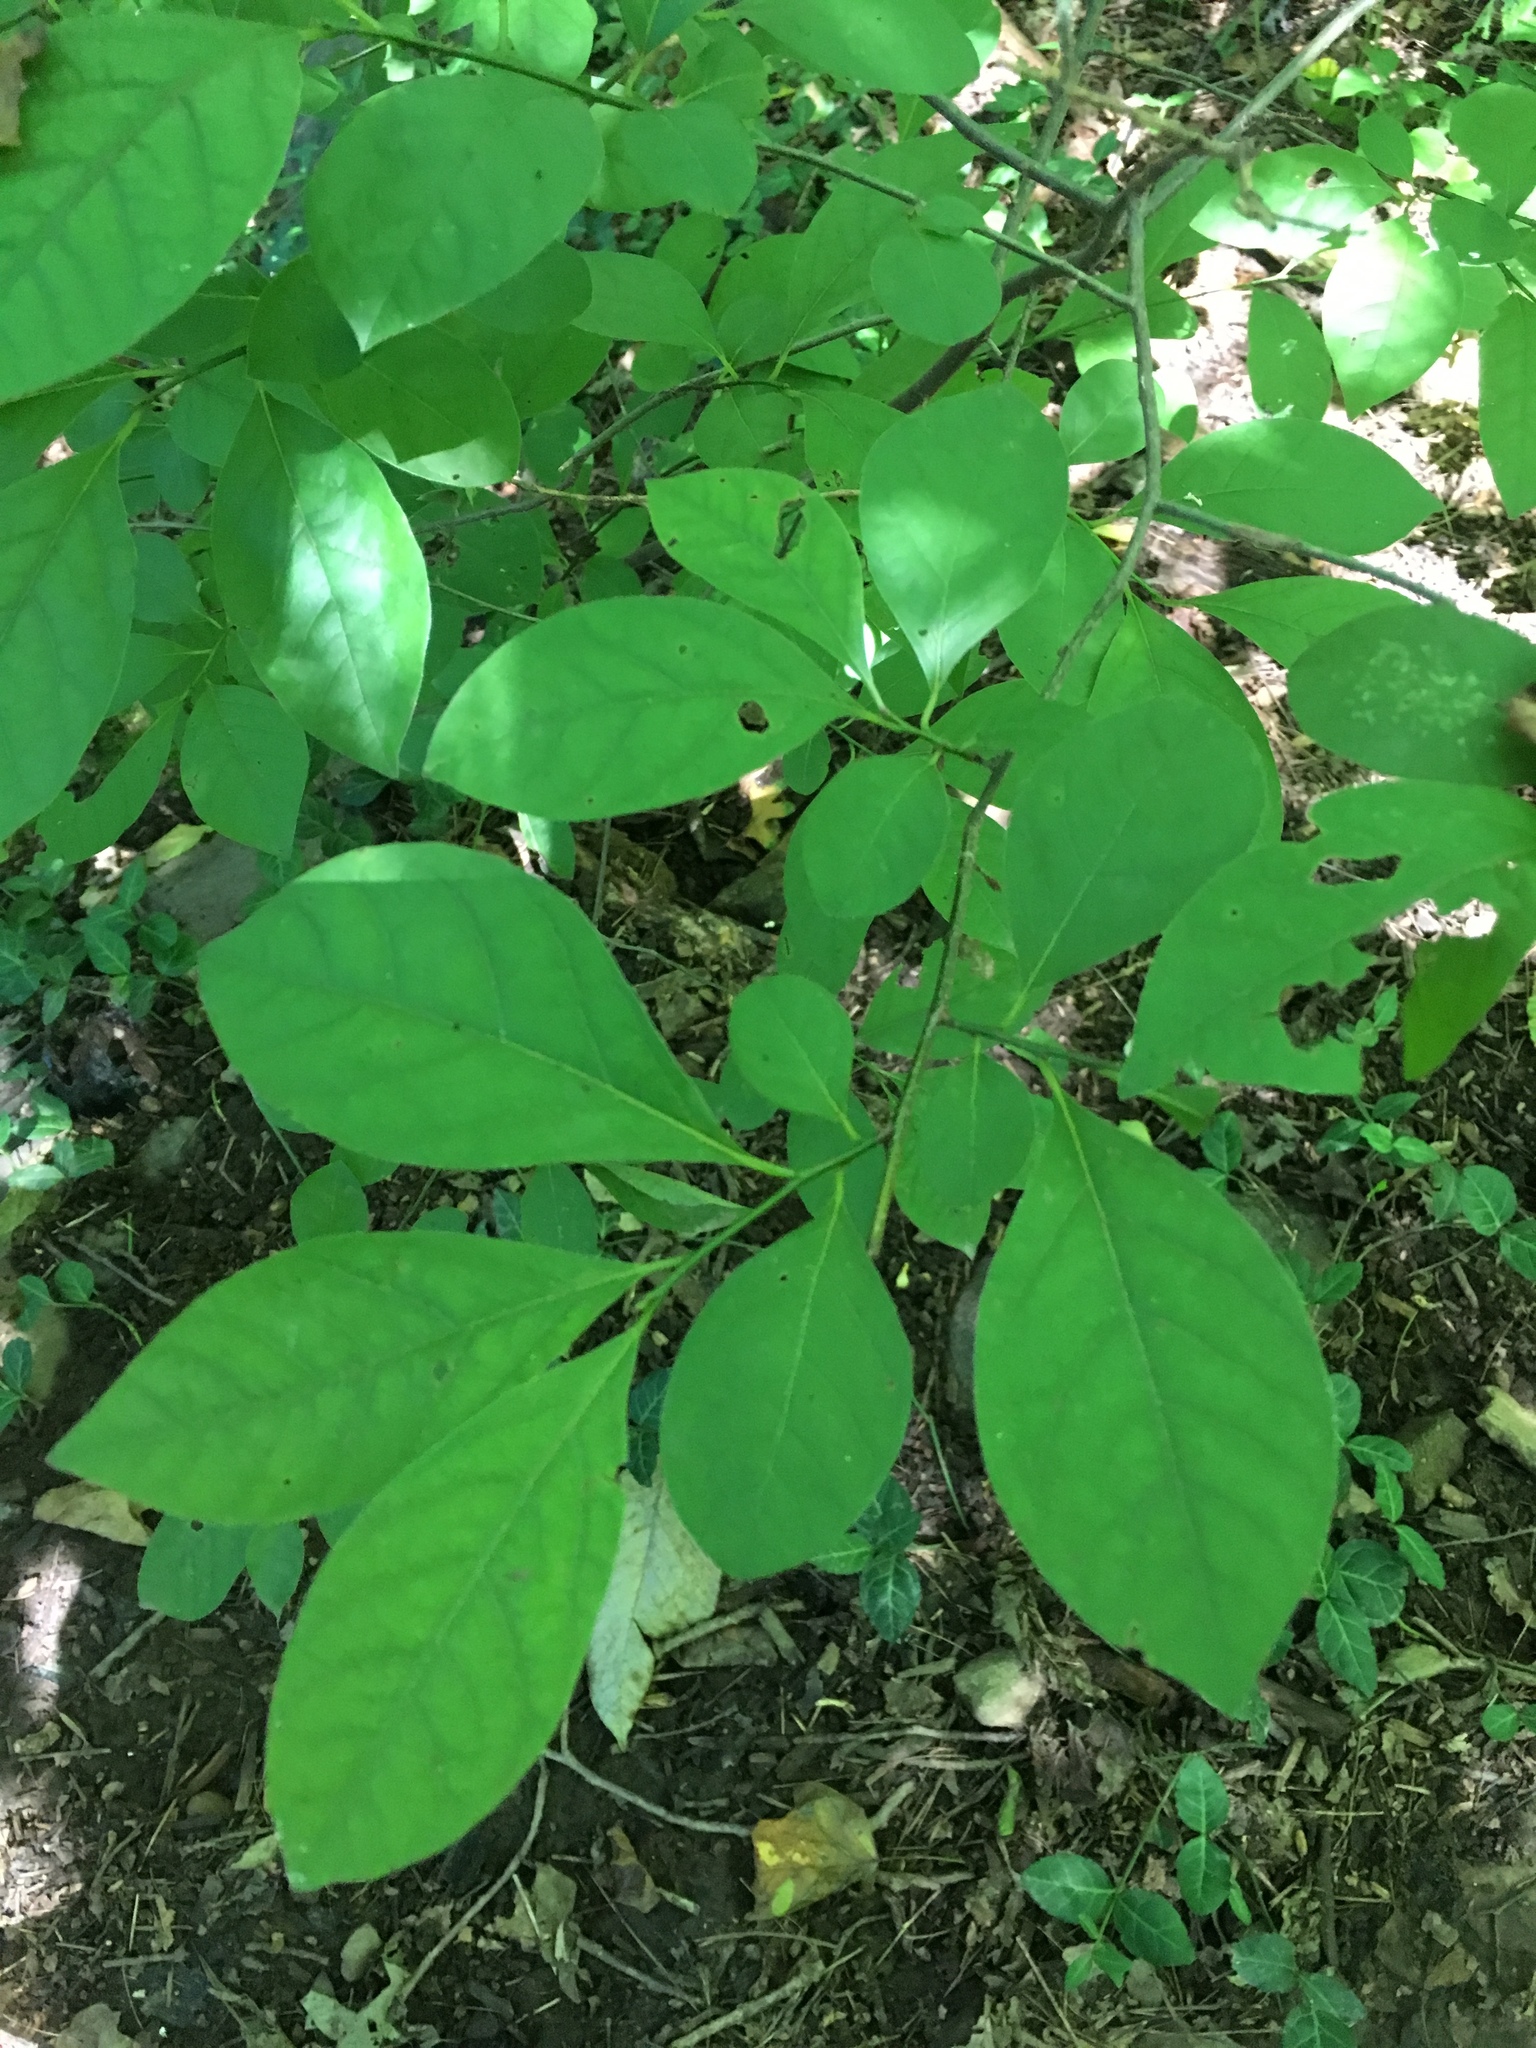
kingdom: Plantae
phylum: Tracheophyta
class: Magnoliopsida
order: Laurales
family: Lauraceae
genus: Lindera
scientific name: Lindera benzoin
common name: Spicebush
